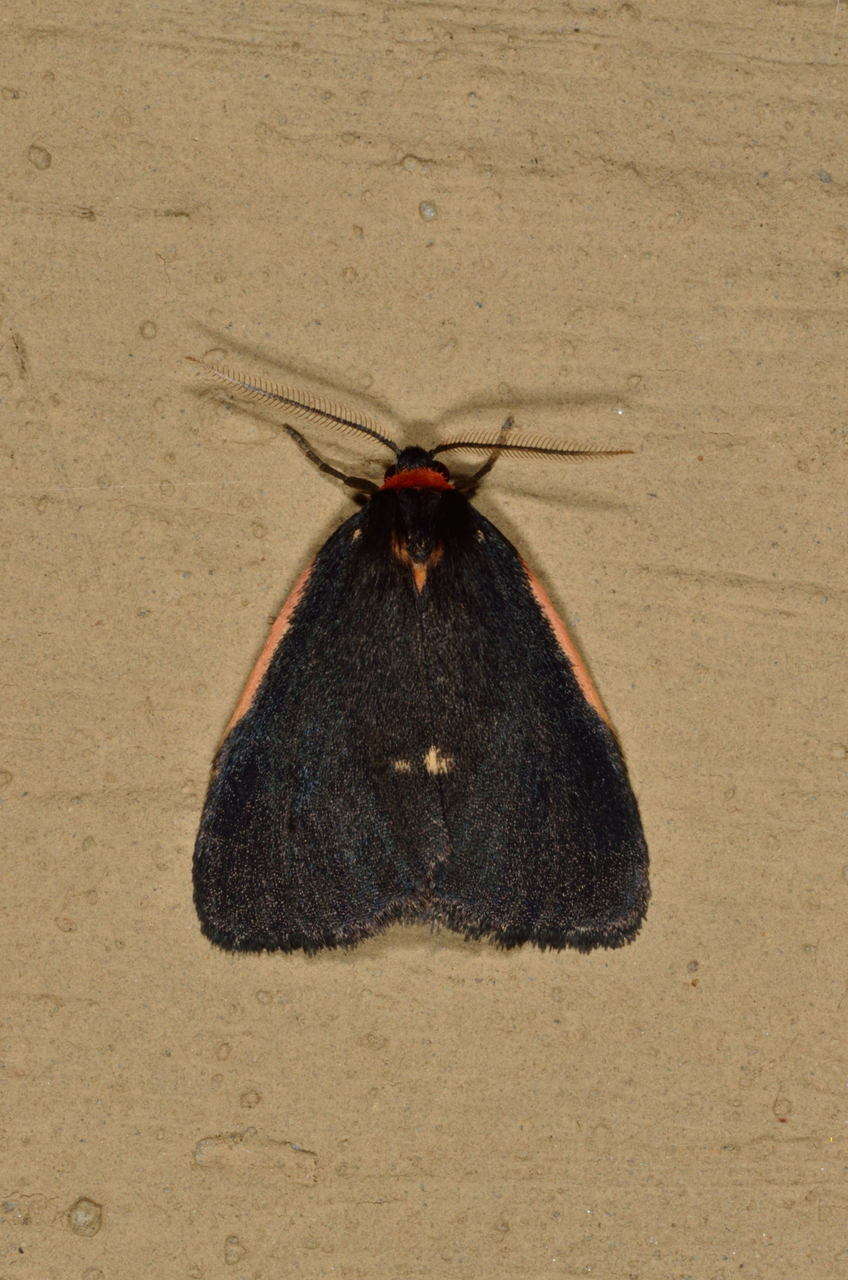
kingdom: Animalia
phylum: Arthropoda
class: Insecta
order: Lepidoptera
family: Erebidae
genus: Castulo
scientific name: Castulo doubledayi
